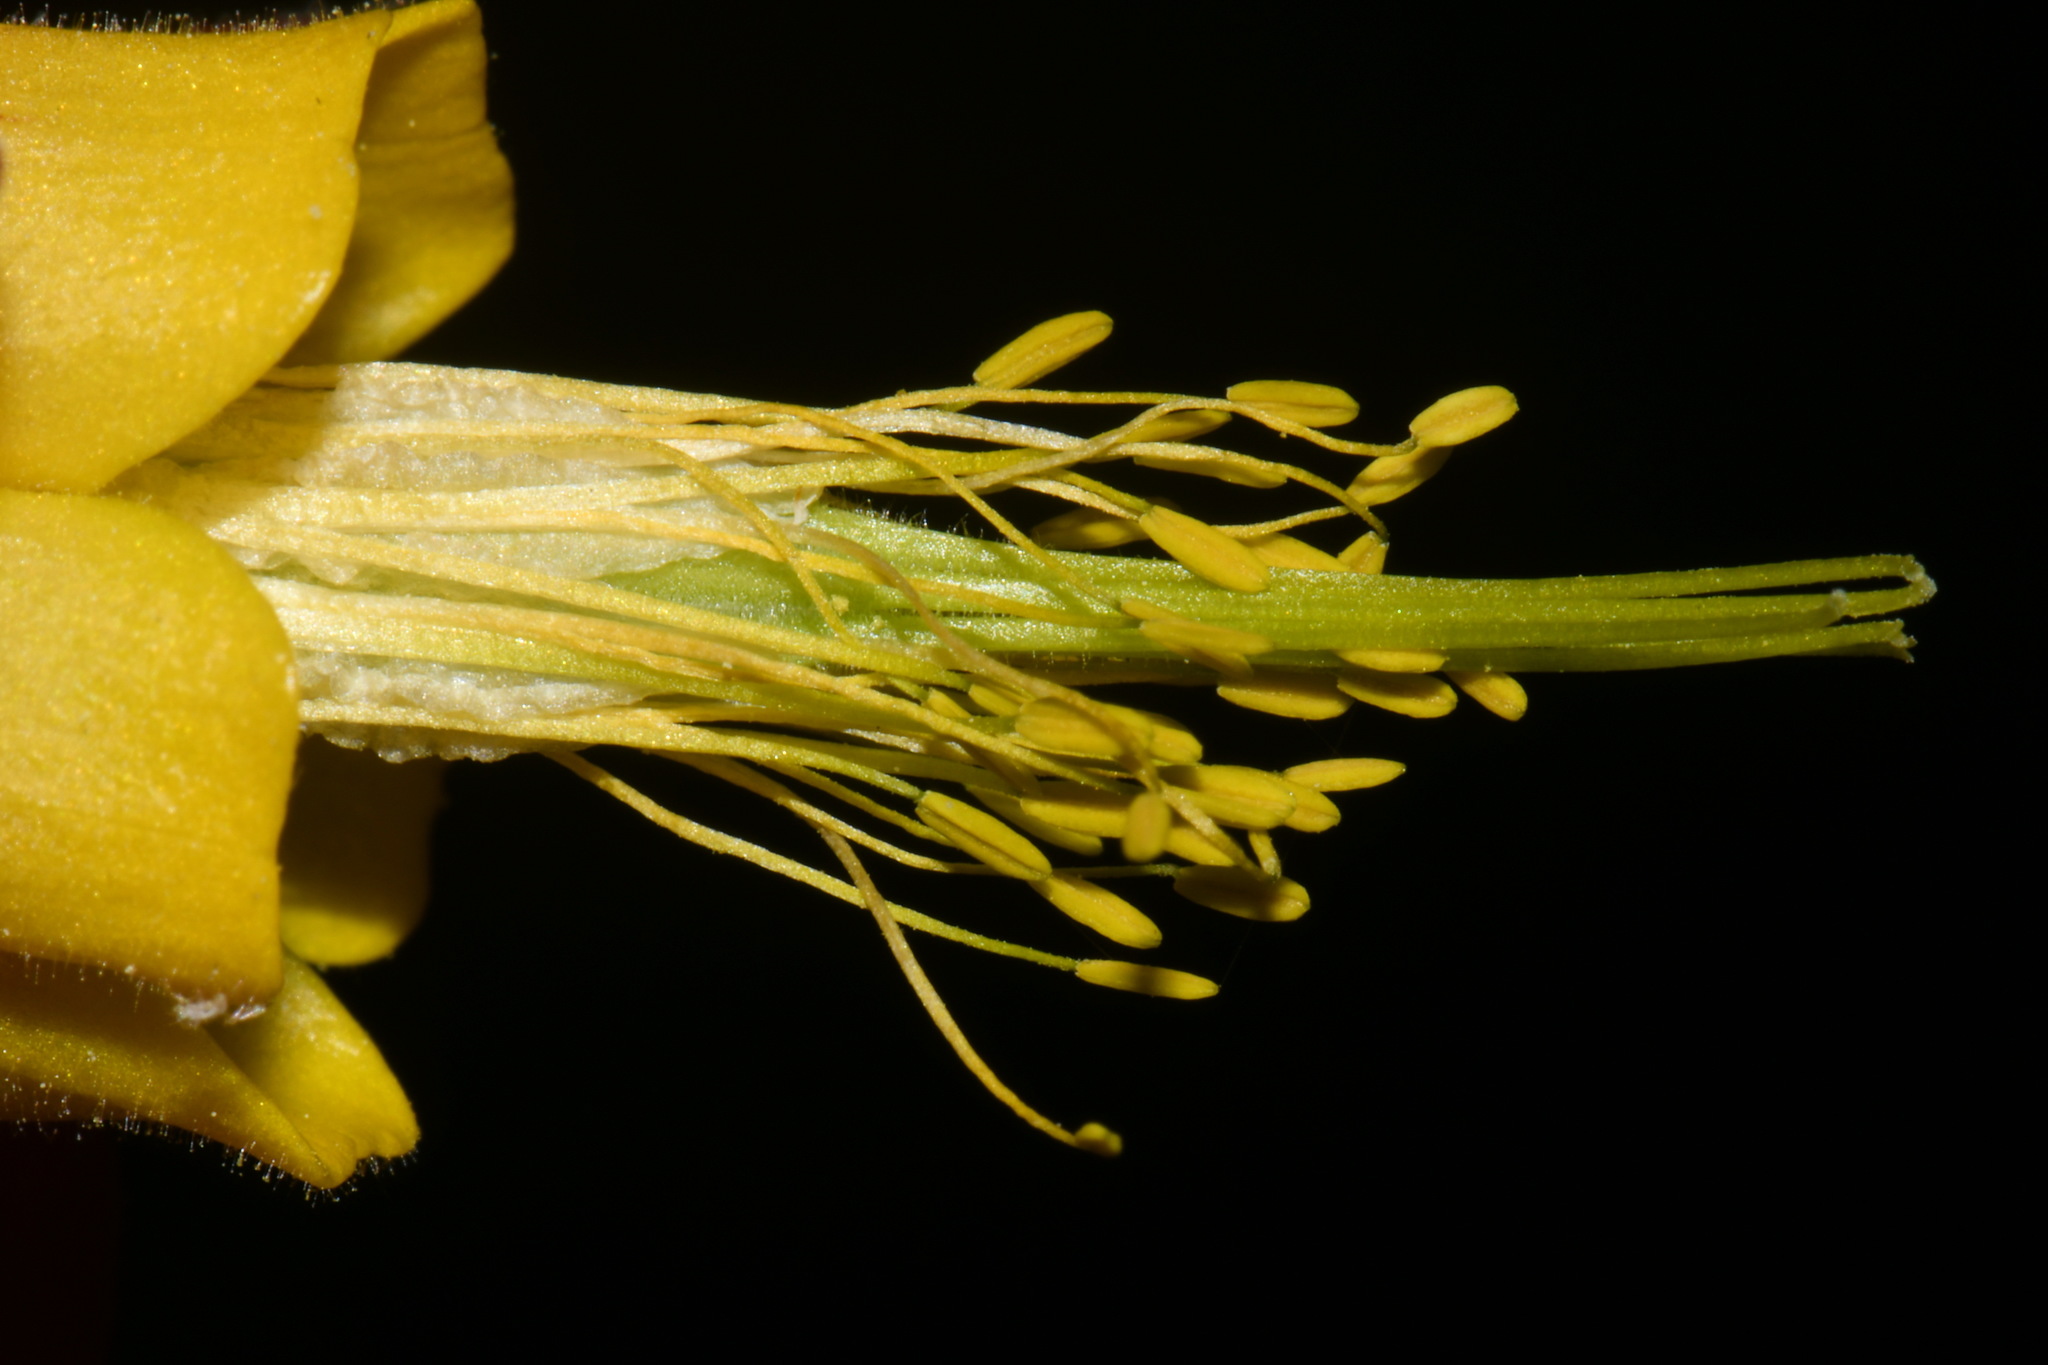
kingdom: Plantae
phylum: Tracheophyta
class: Magnoliopsida
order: Ranunculales
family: Ranunculaceae
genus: Aquilegia
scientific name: Aquilegia formosa
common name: Sitka columbine
